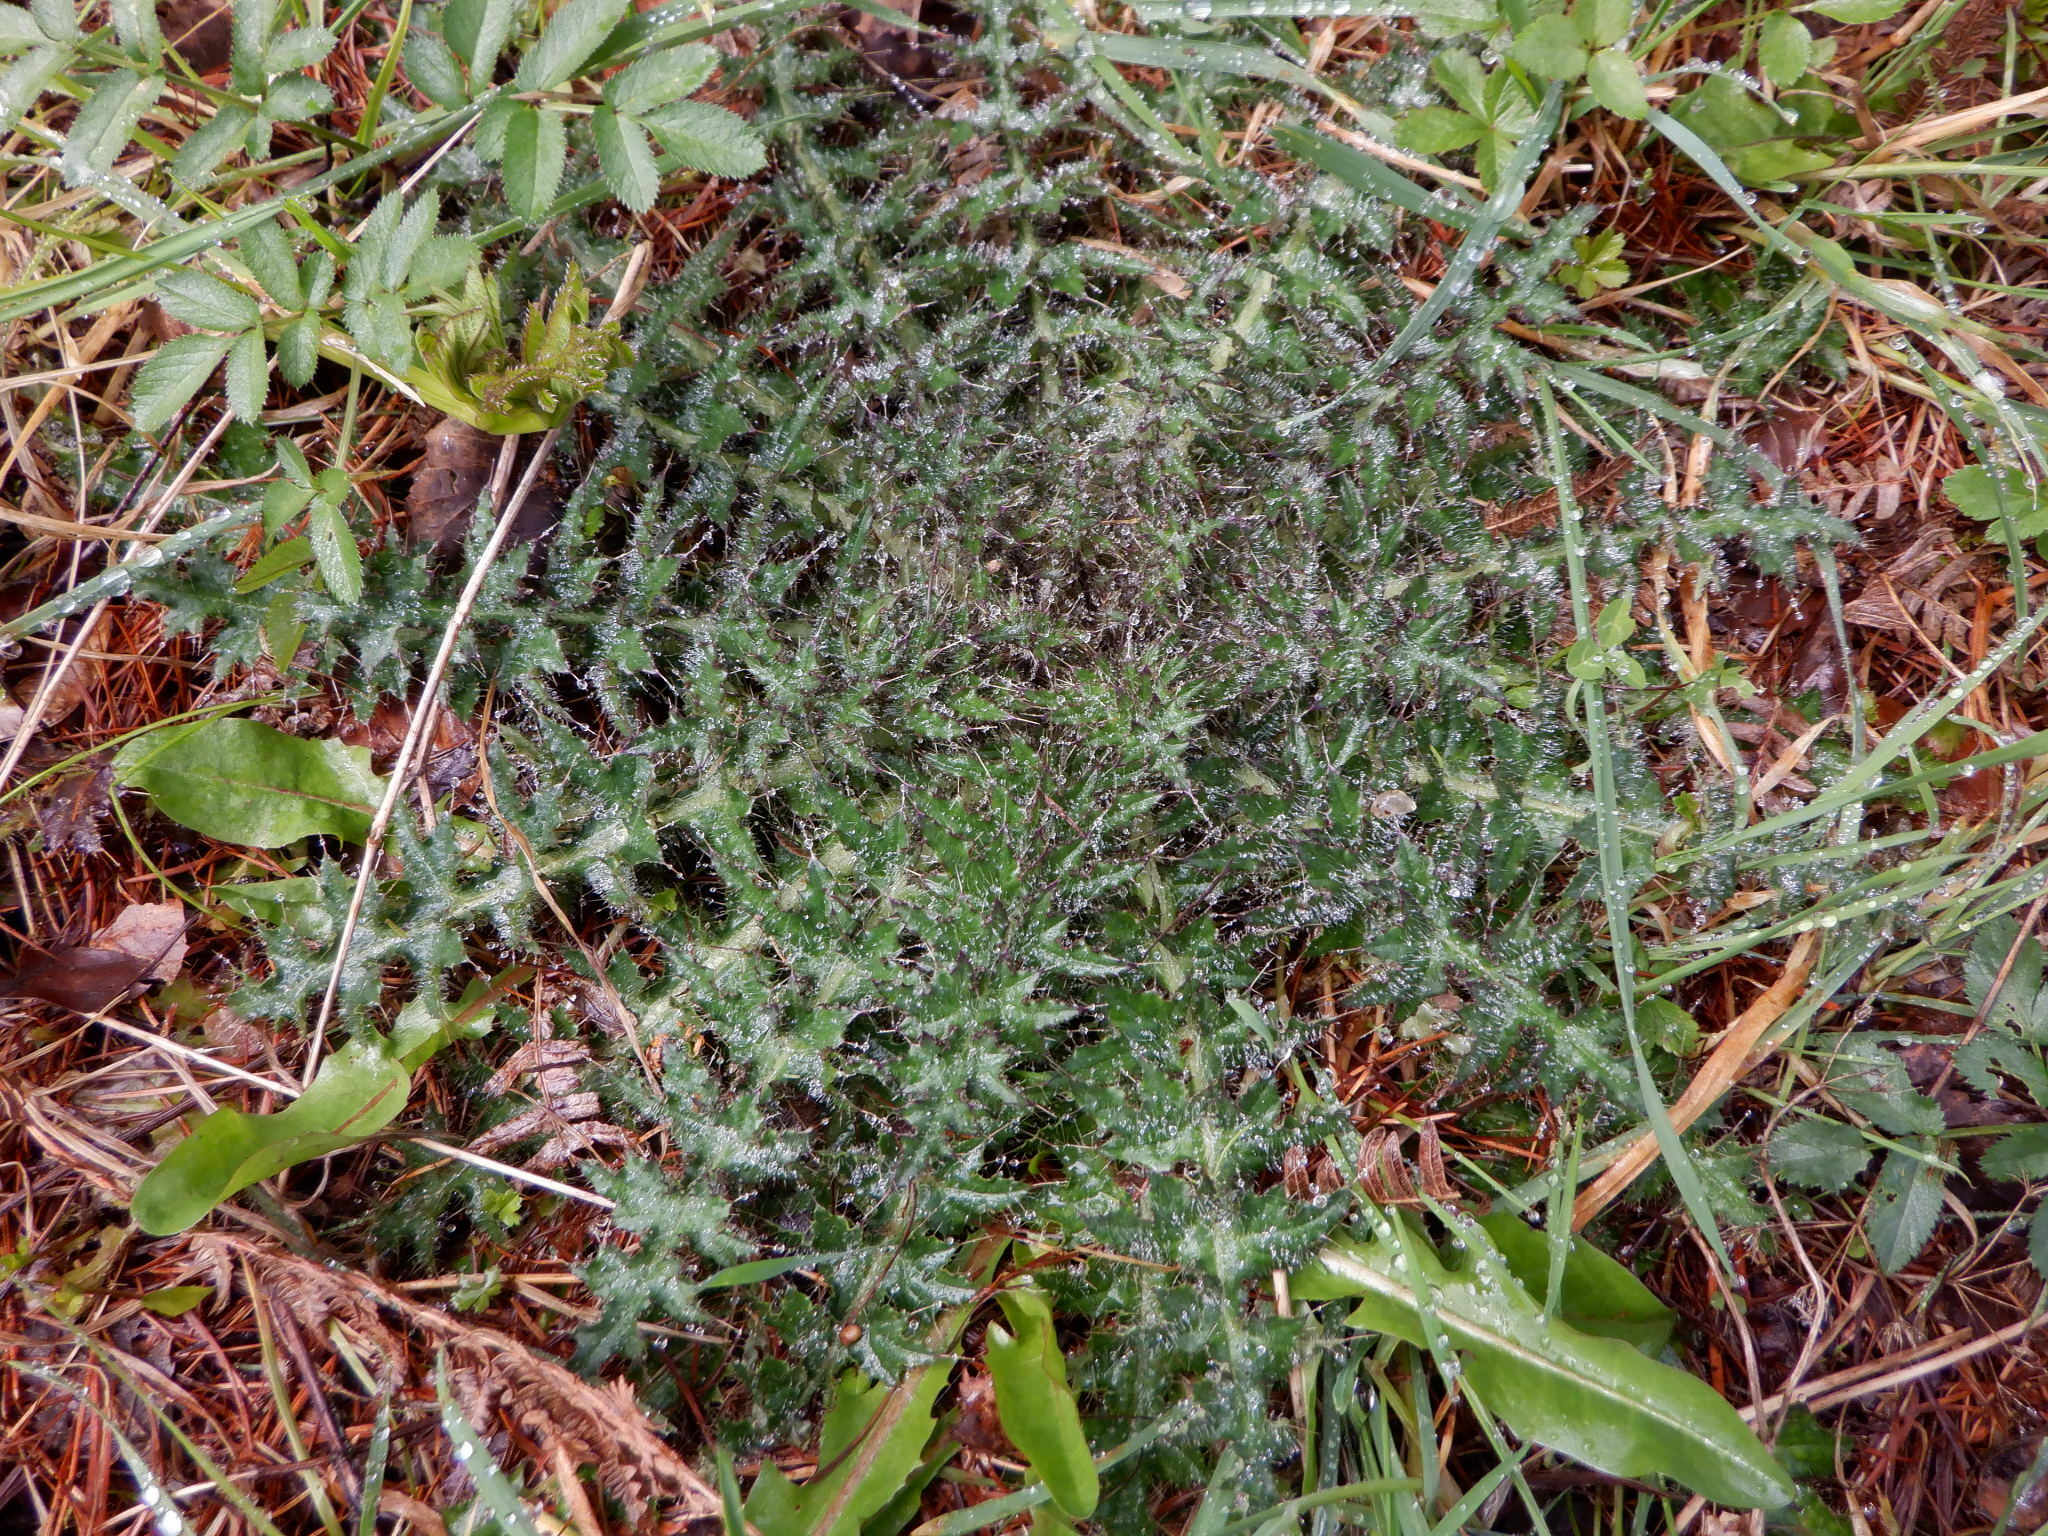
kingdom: Plantae
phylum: Tracheophyta
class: Magnoliopsida
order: Asterales
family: Asteraceae
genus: Cirsium
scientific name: Cirsium palustre
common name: Marsh thistle
